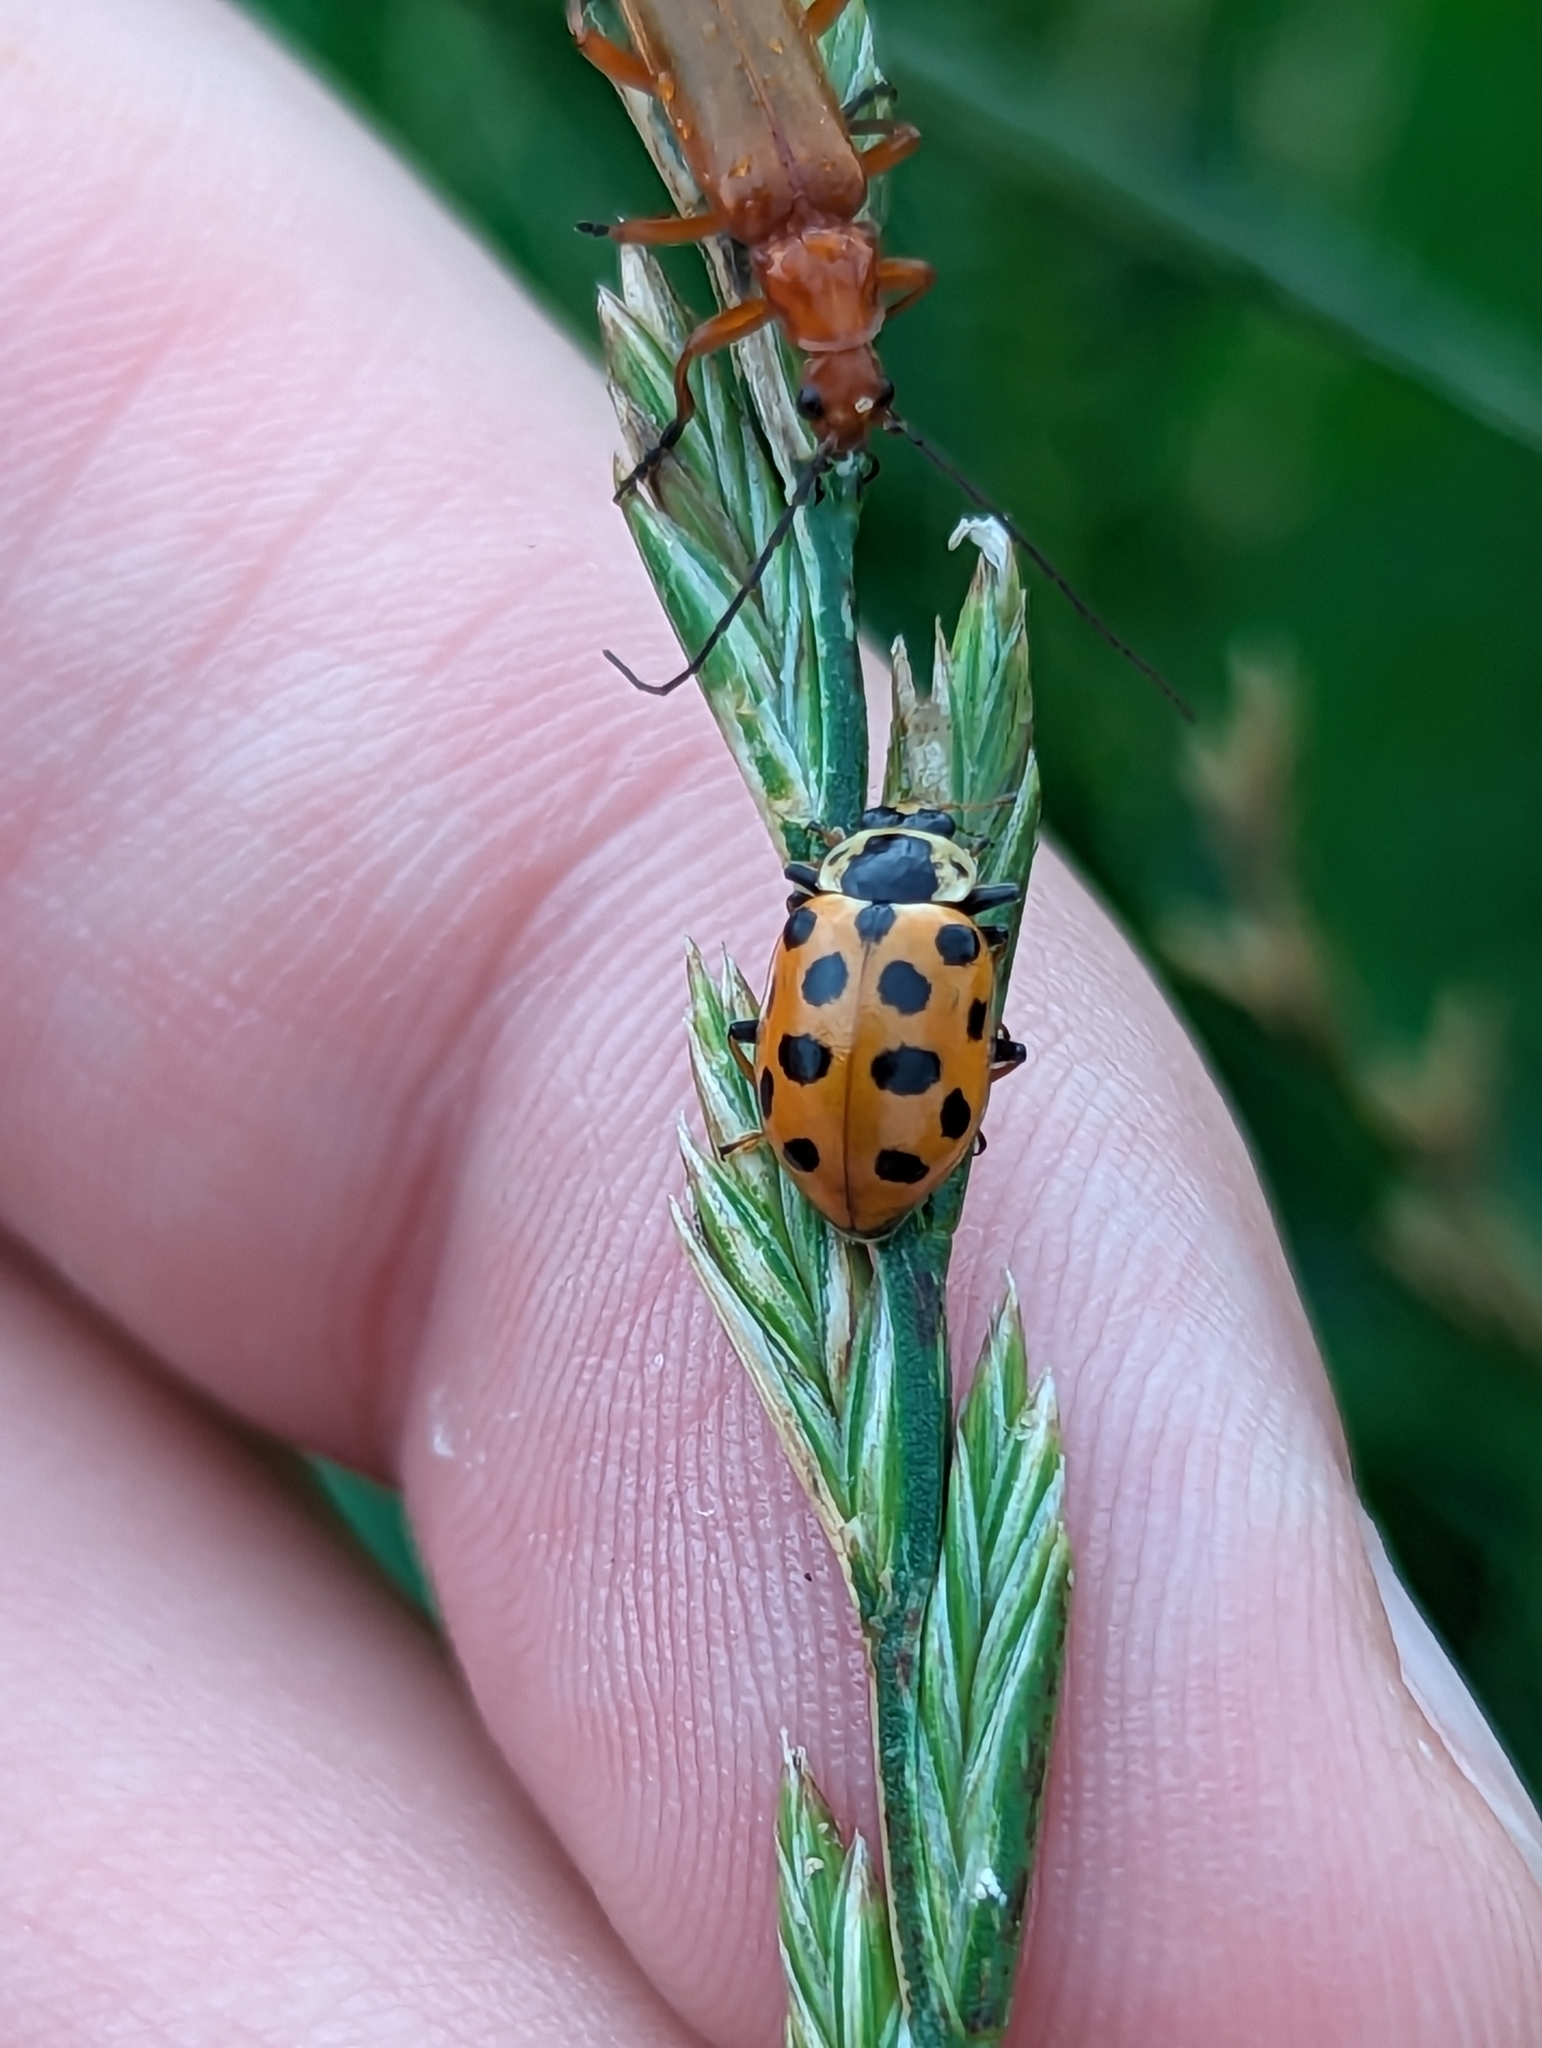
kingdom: Animalia
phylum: Arthropoda
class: Insecta
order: Coleoptera
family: Coccinellidae
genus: Hippodamia
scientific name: Hippodamia tredecimpunctata
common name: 13-spot ladybird
